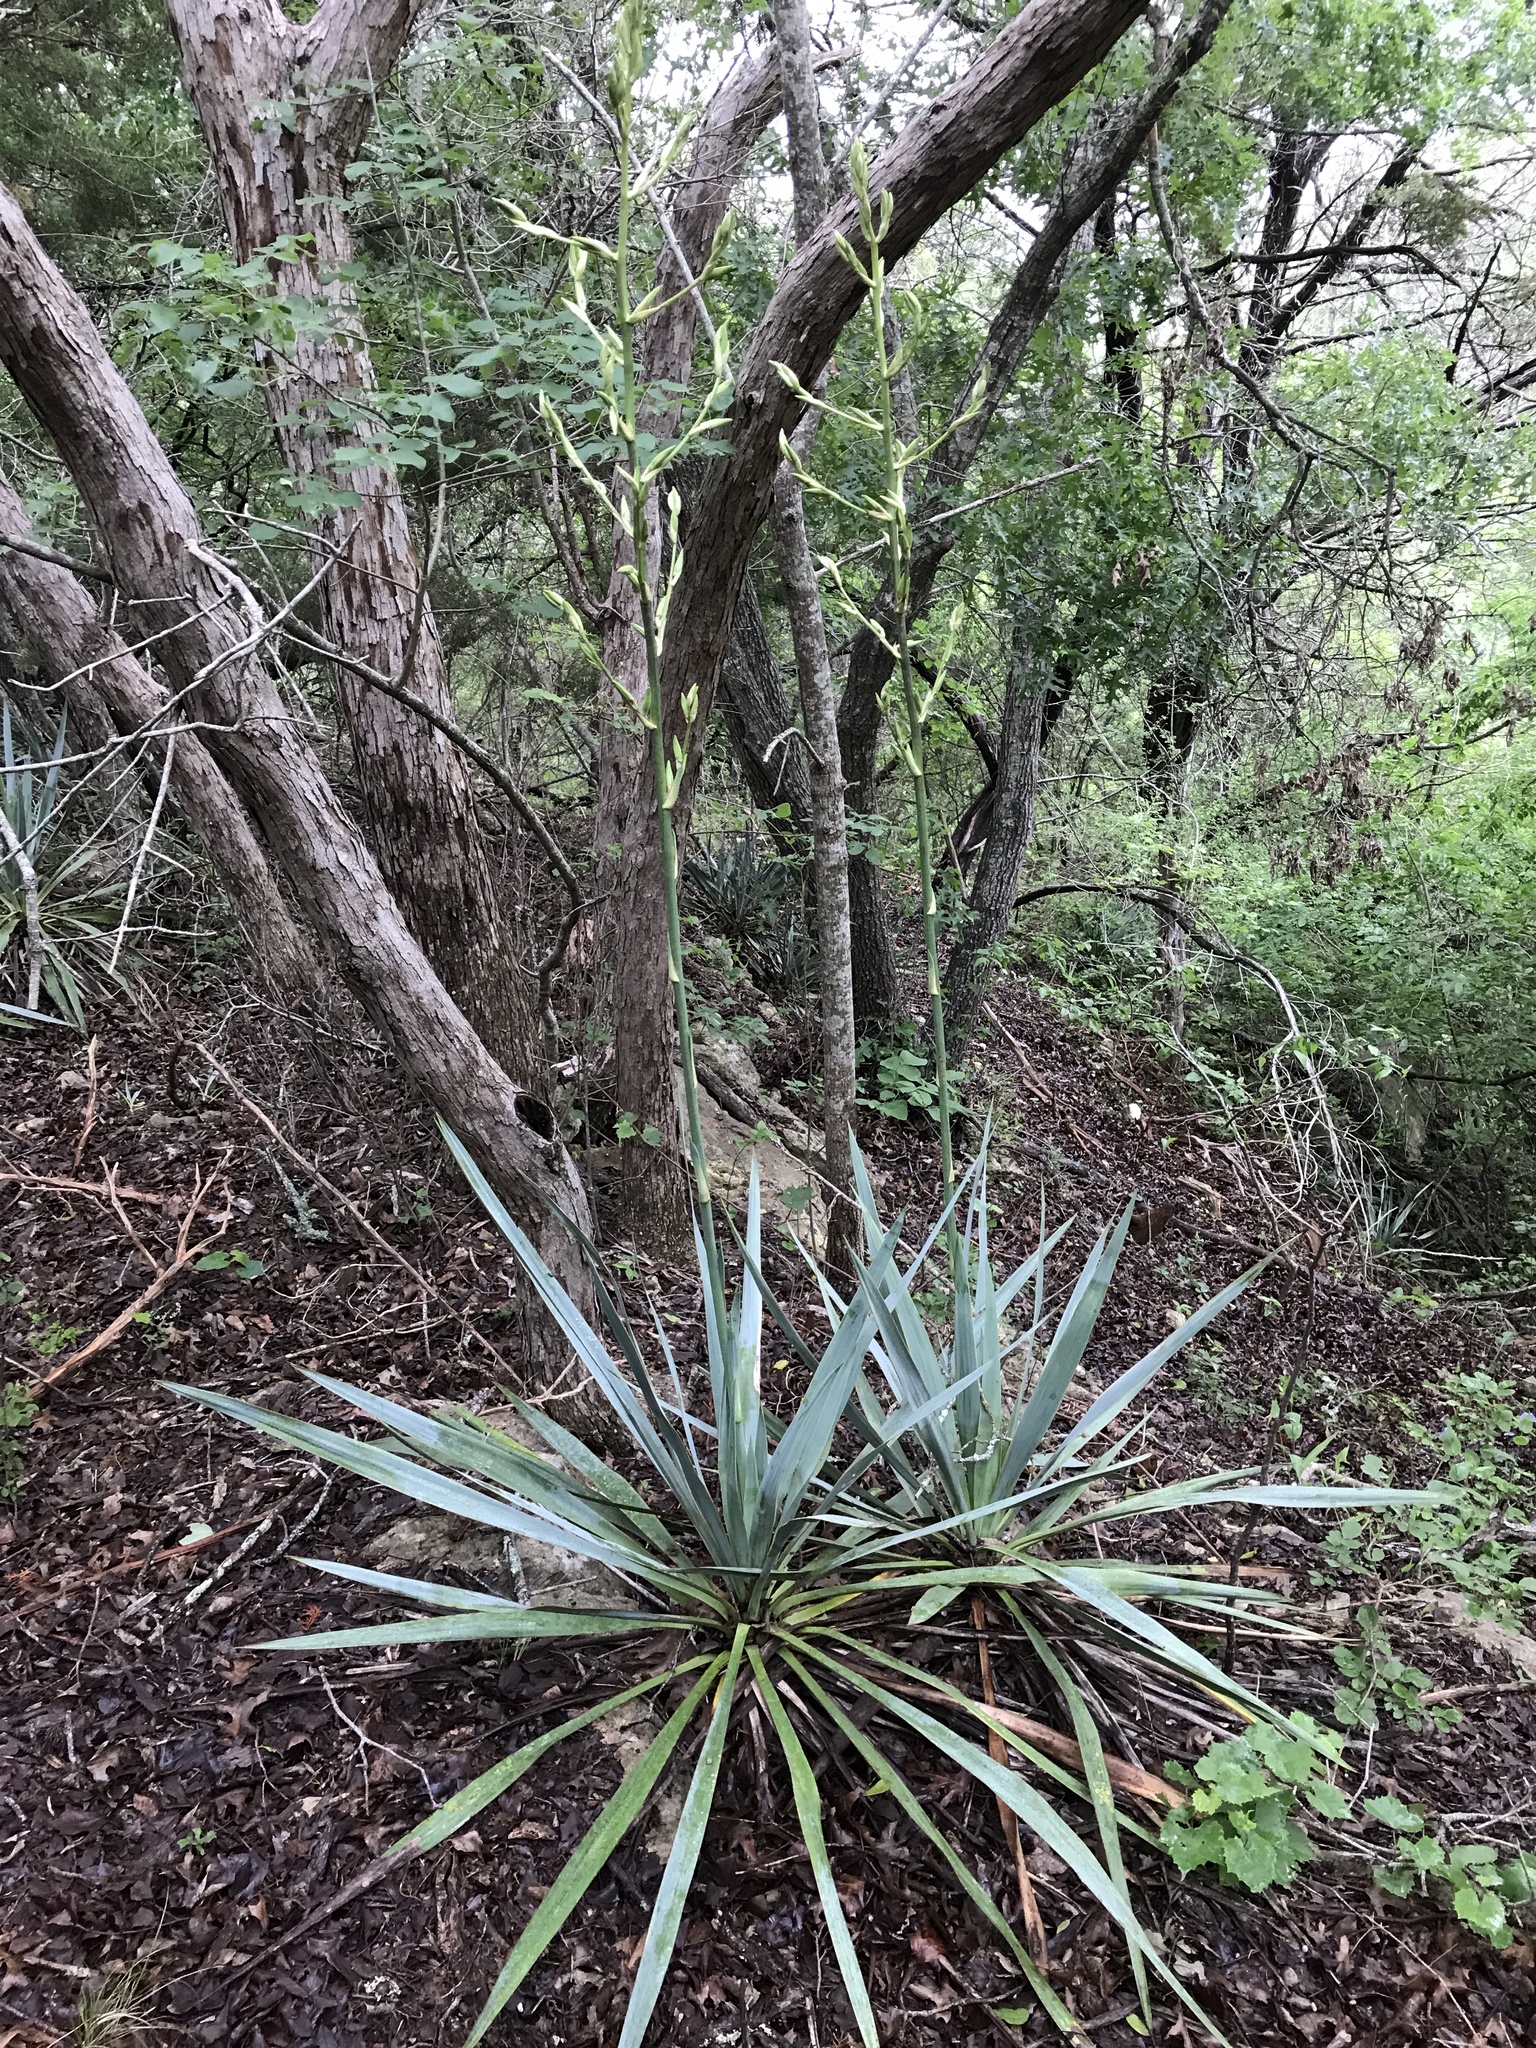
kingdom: Plantae
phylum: Tracheophyta
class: Liliopsida
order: Asparagales
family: Asparagaceae
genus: Yucca
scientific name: Yucca pallida
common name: Pale leaf yucca
